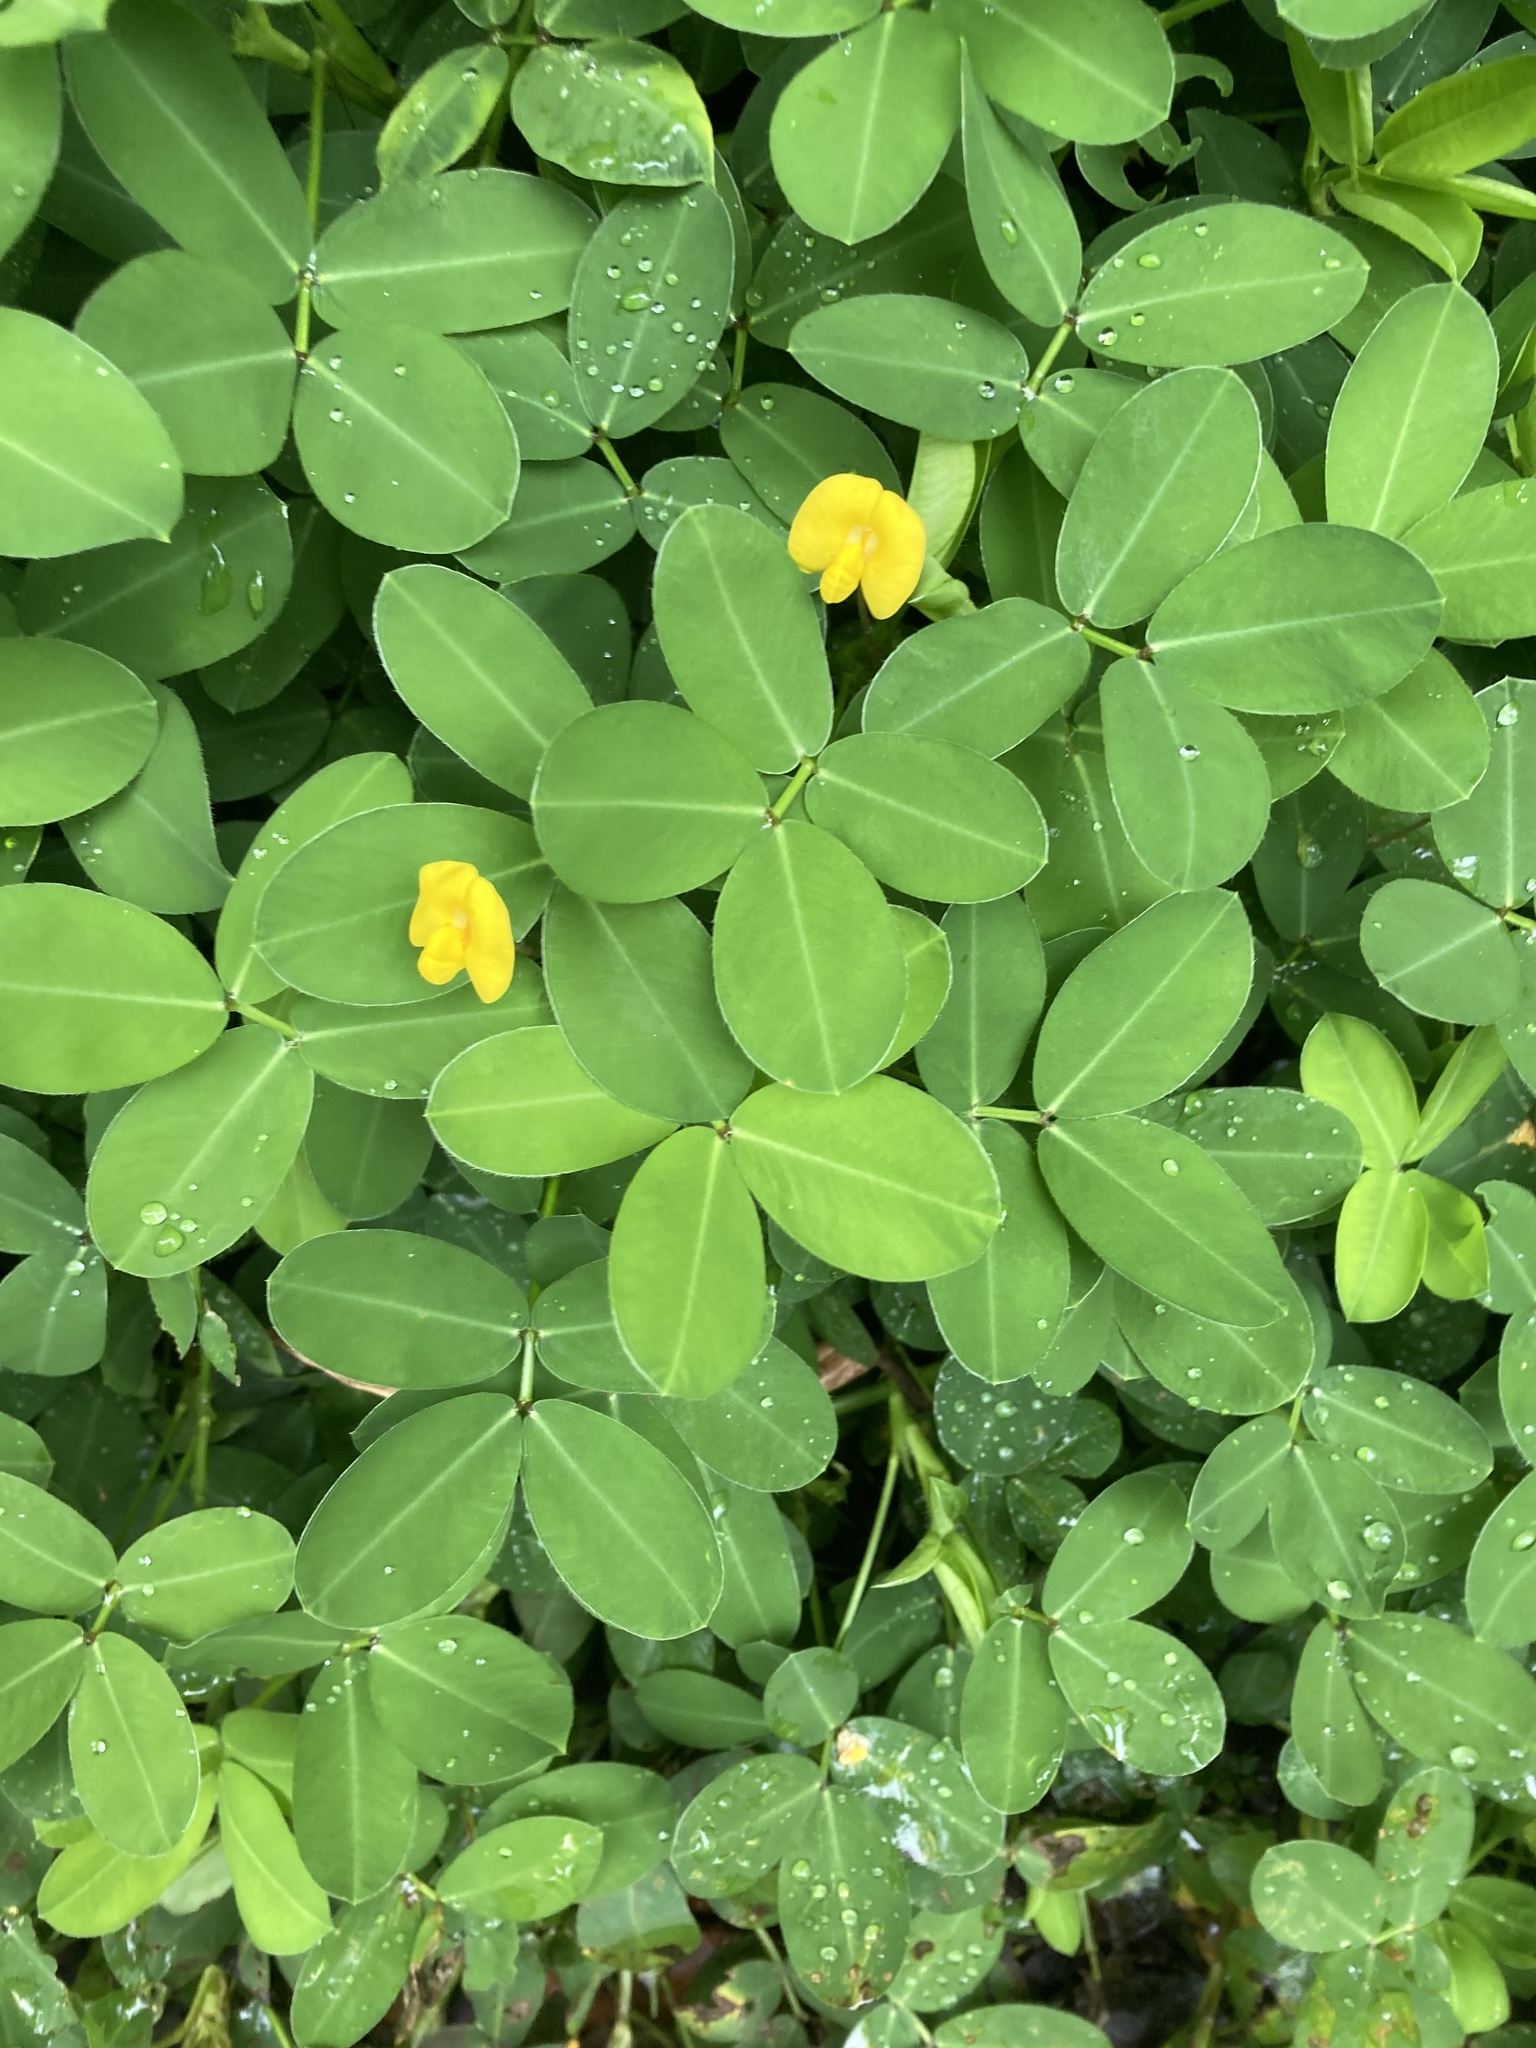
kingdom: Plantae
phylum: Tracheophyta
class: Magnoliopsida
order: Fabales
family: Fabaceae
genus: Arachis
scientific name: Arachis repens
